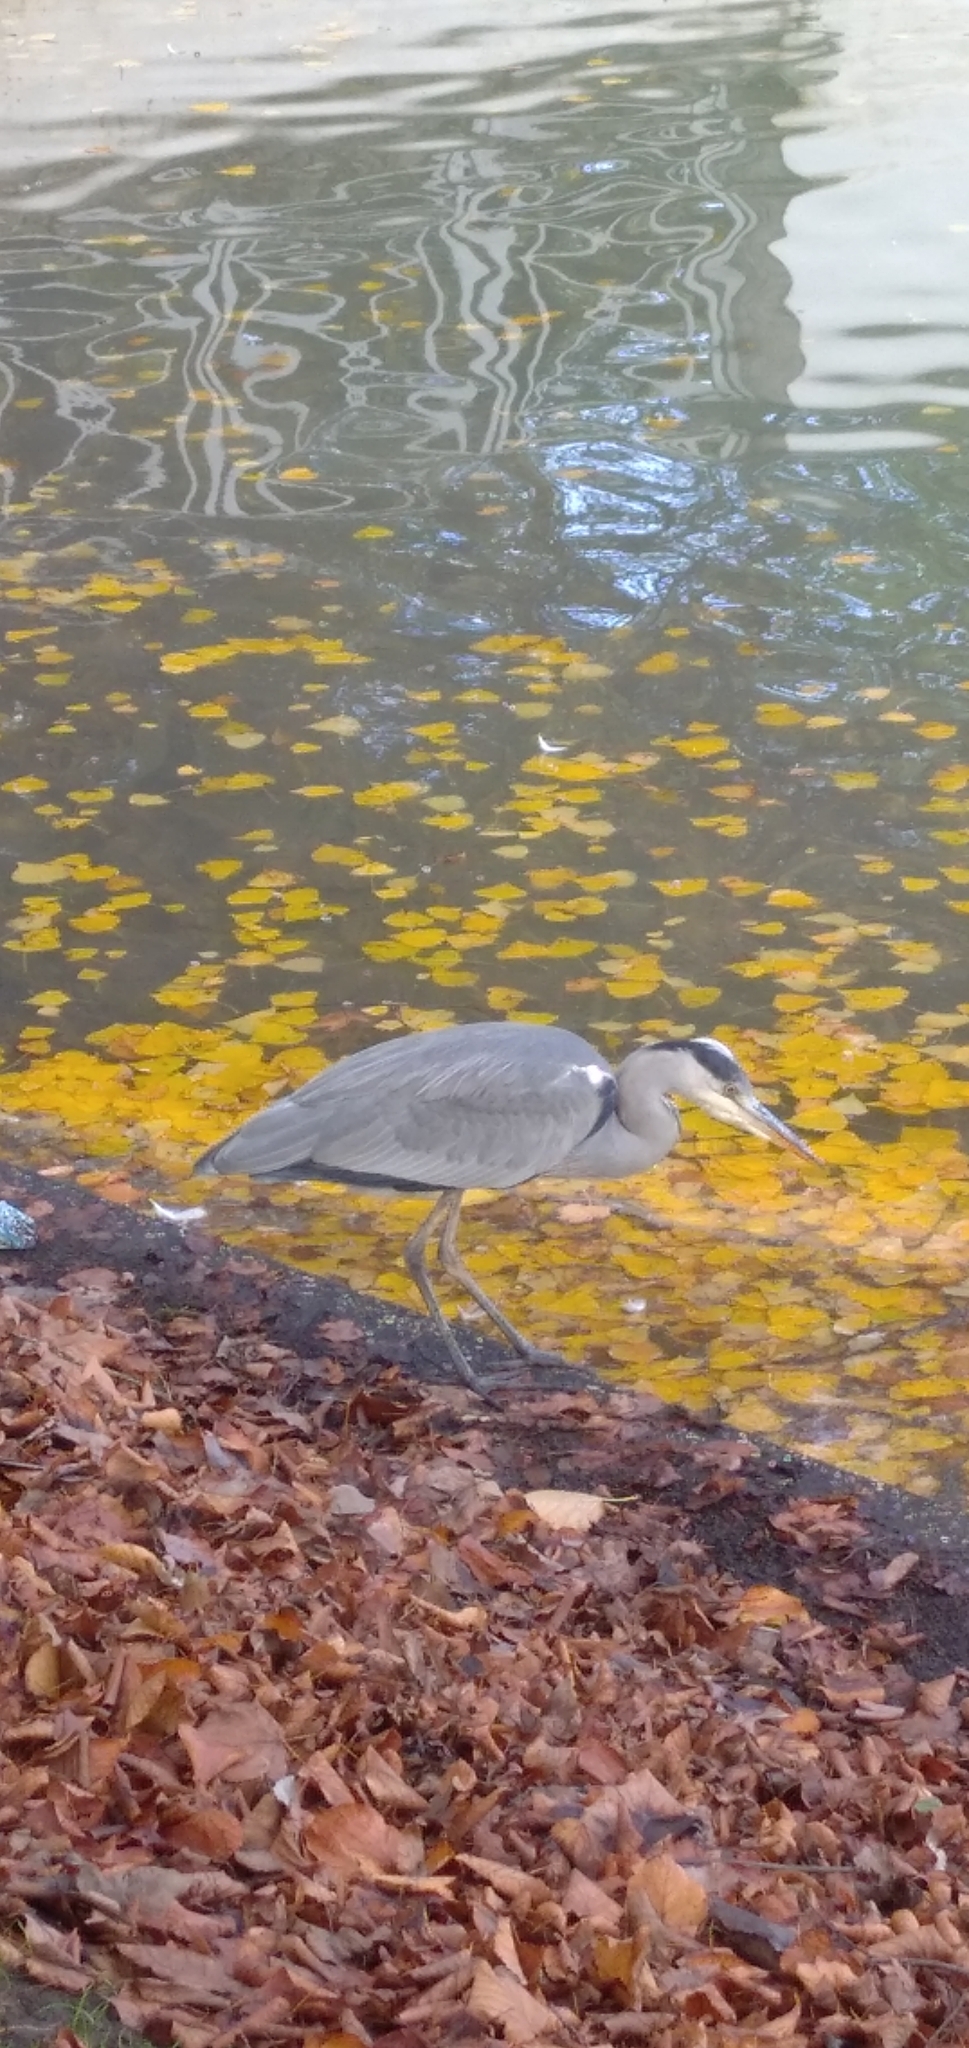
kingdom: Animalia
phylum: Chordata
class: Aves
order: Pelecaniformes
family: Ardeidae
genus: Ardea
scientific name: Ardea cinerea
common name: Grey heron
